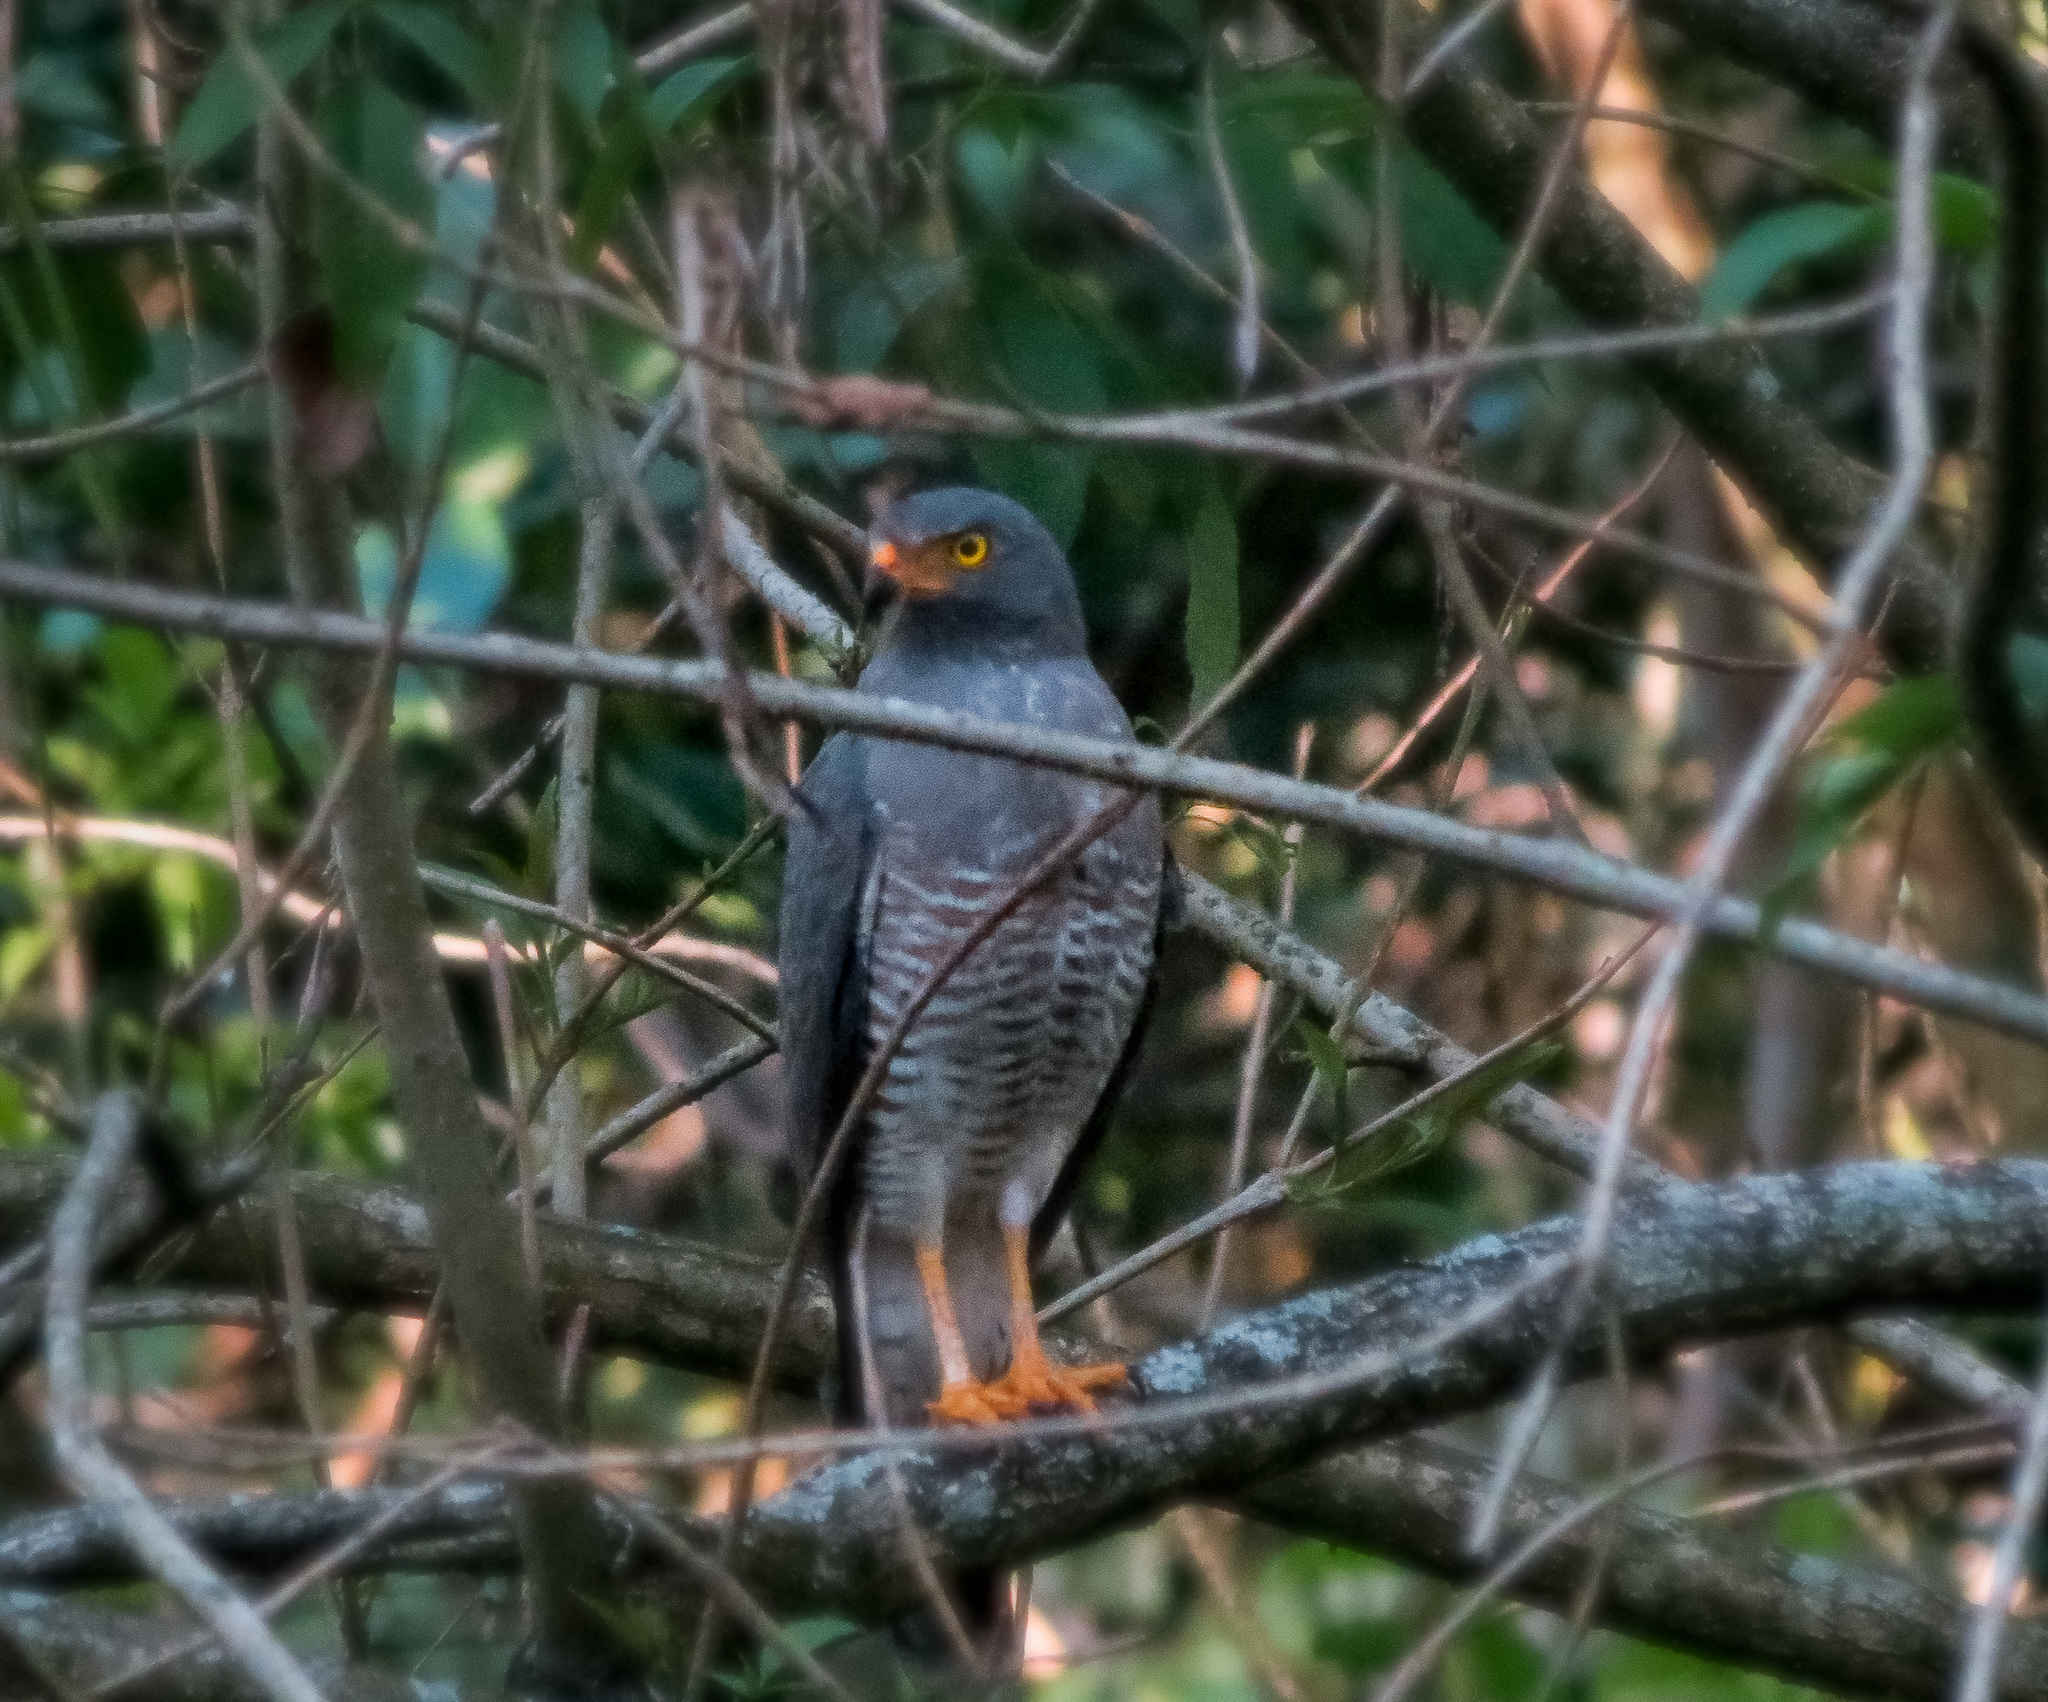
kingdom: Animalia
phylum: Chordata
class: Aves
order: Accipitriformes
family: Accipitridae
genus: Rupornis
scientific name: Rupornis magnirostris
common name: Roadside hawk
